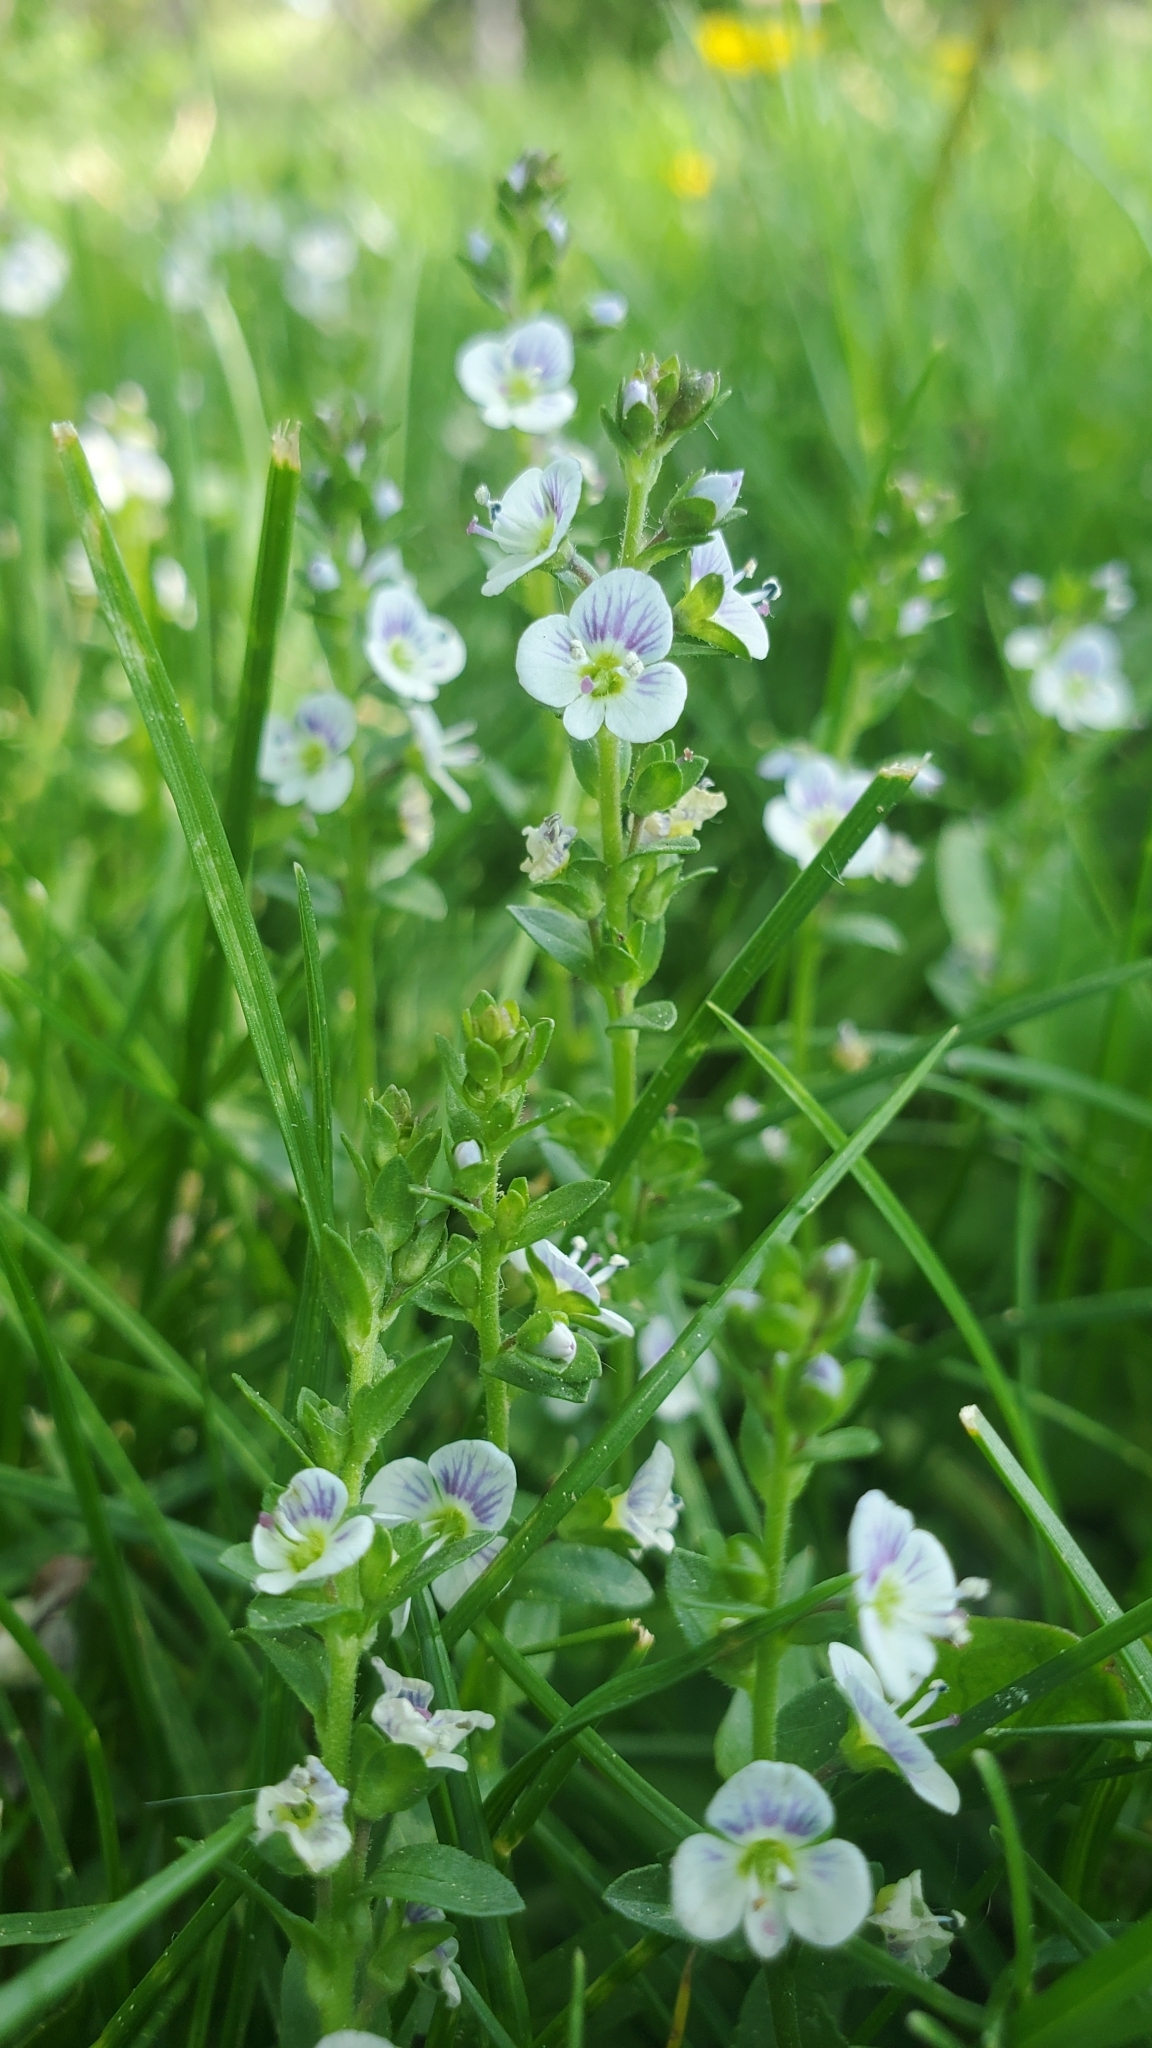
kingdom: Plantae
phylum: Tracheophyta
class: Magnoliopsida
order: Lamiales
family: Plantaginaceae
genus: Veronica
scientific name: Veronica serpyllifolia
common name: Thyme-leaved speedwell
